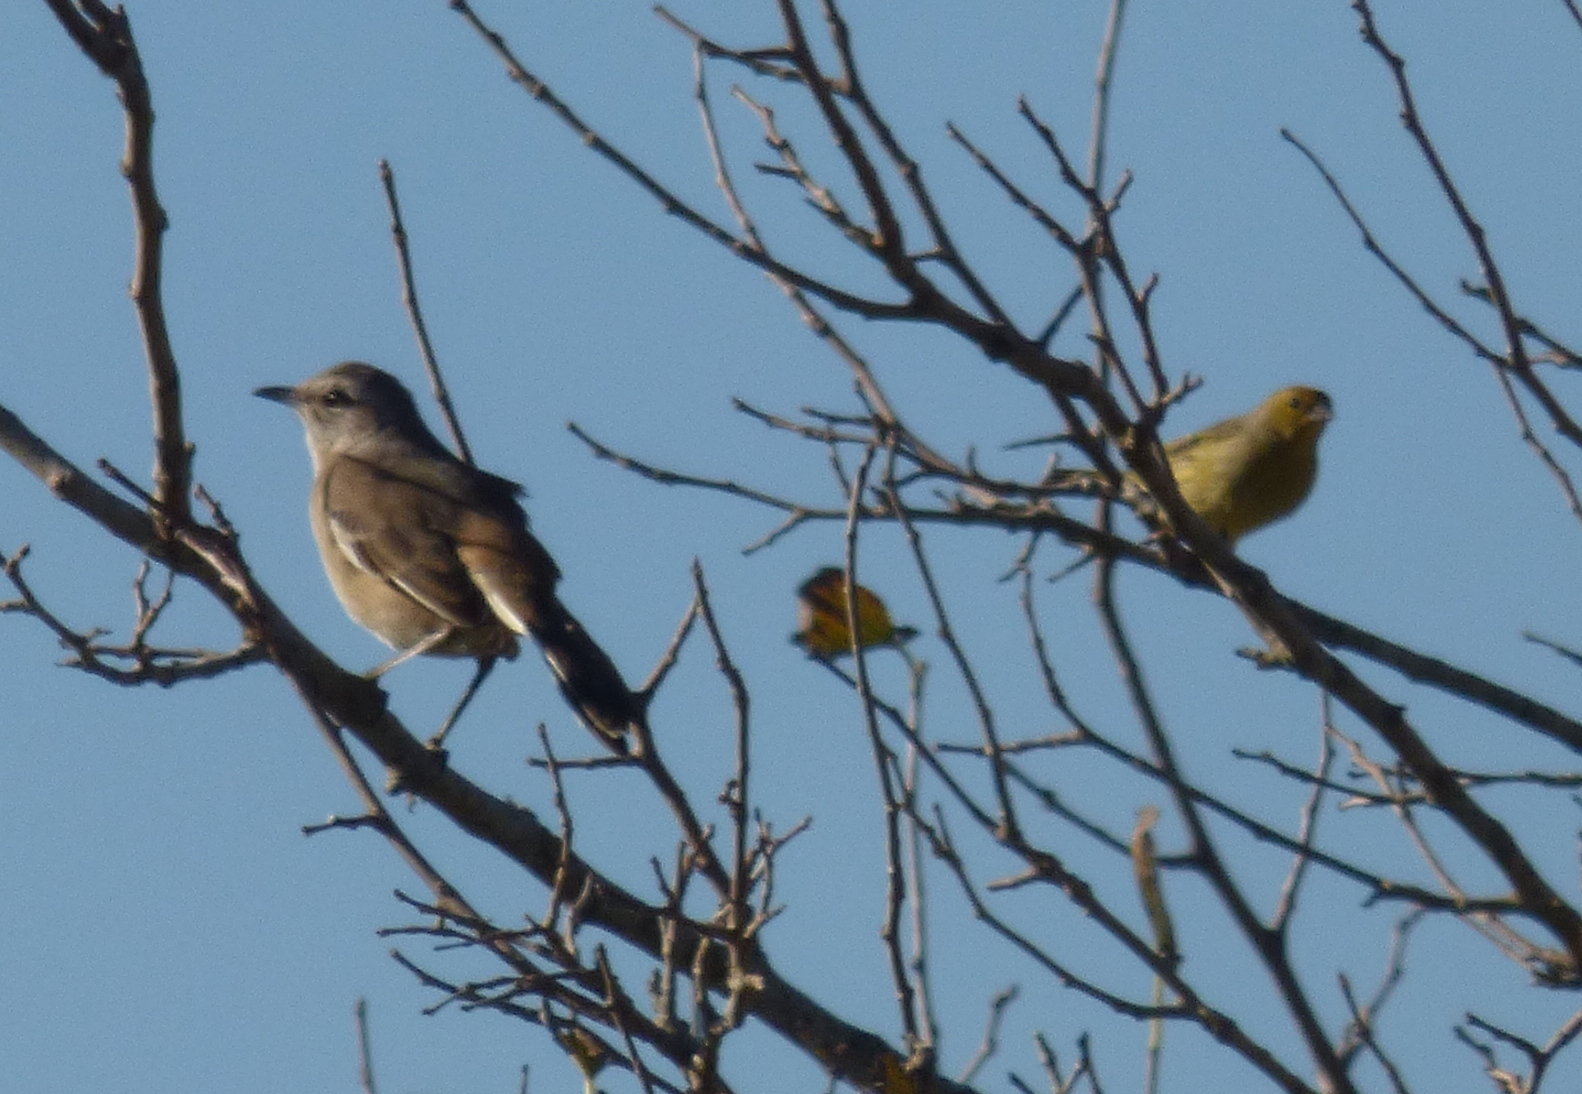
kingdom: Animalia
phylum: Chordata
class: Aves
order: Passeriformes
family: Mimidae
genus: Mimus
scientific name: Mimus triurus
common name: White-banded mockingbird
